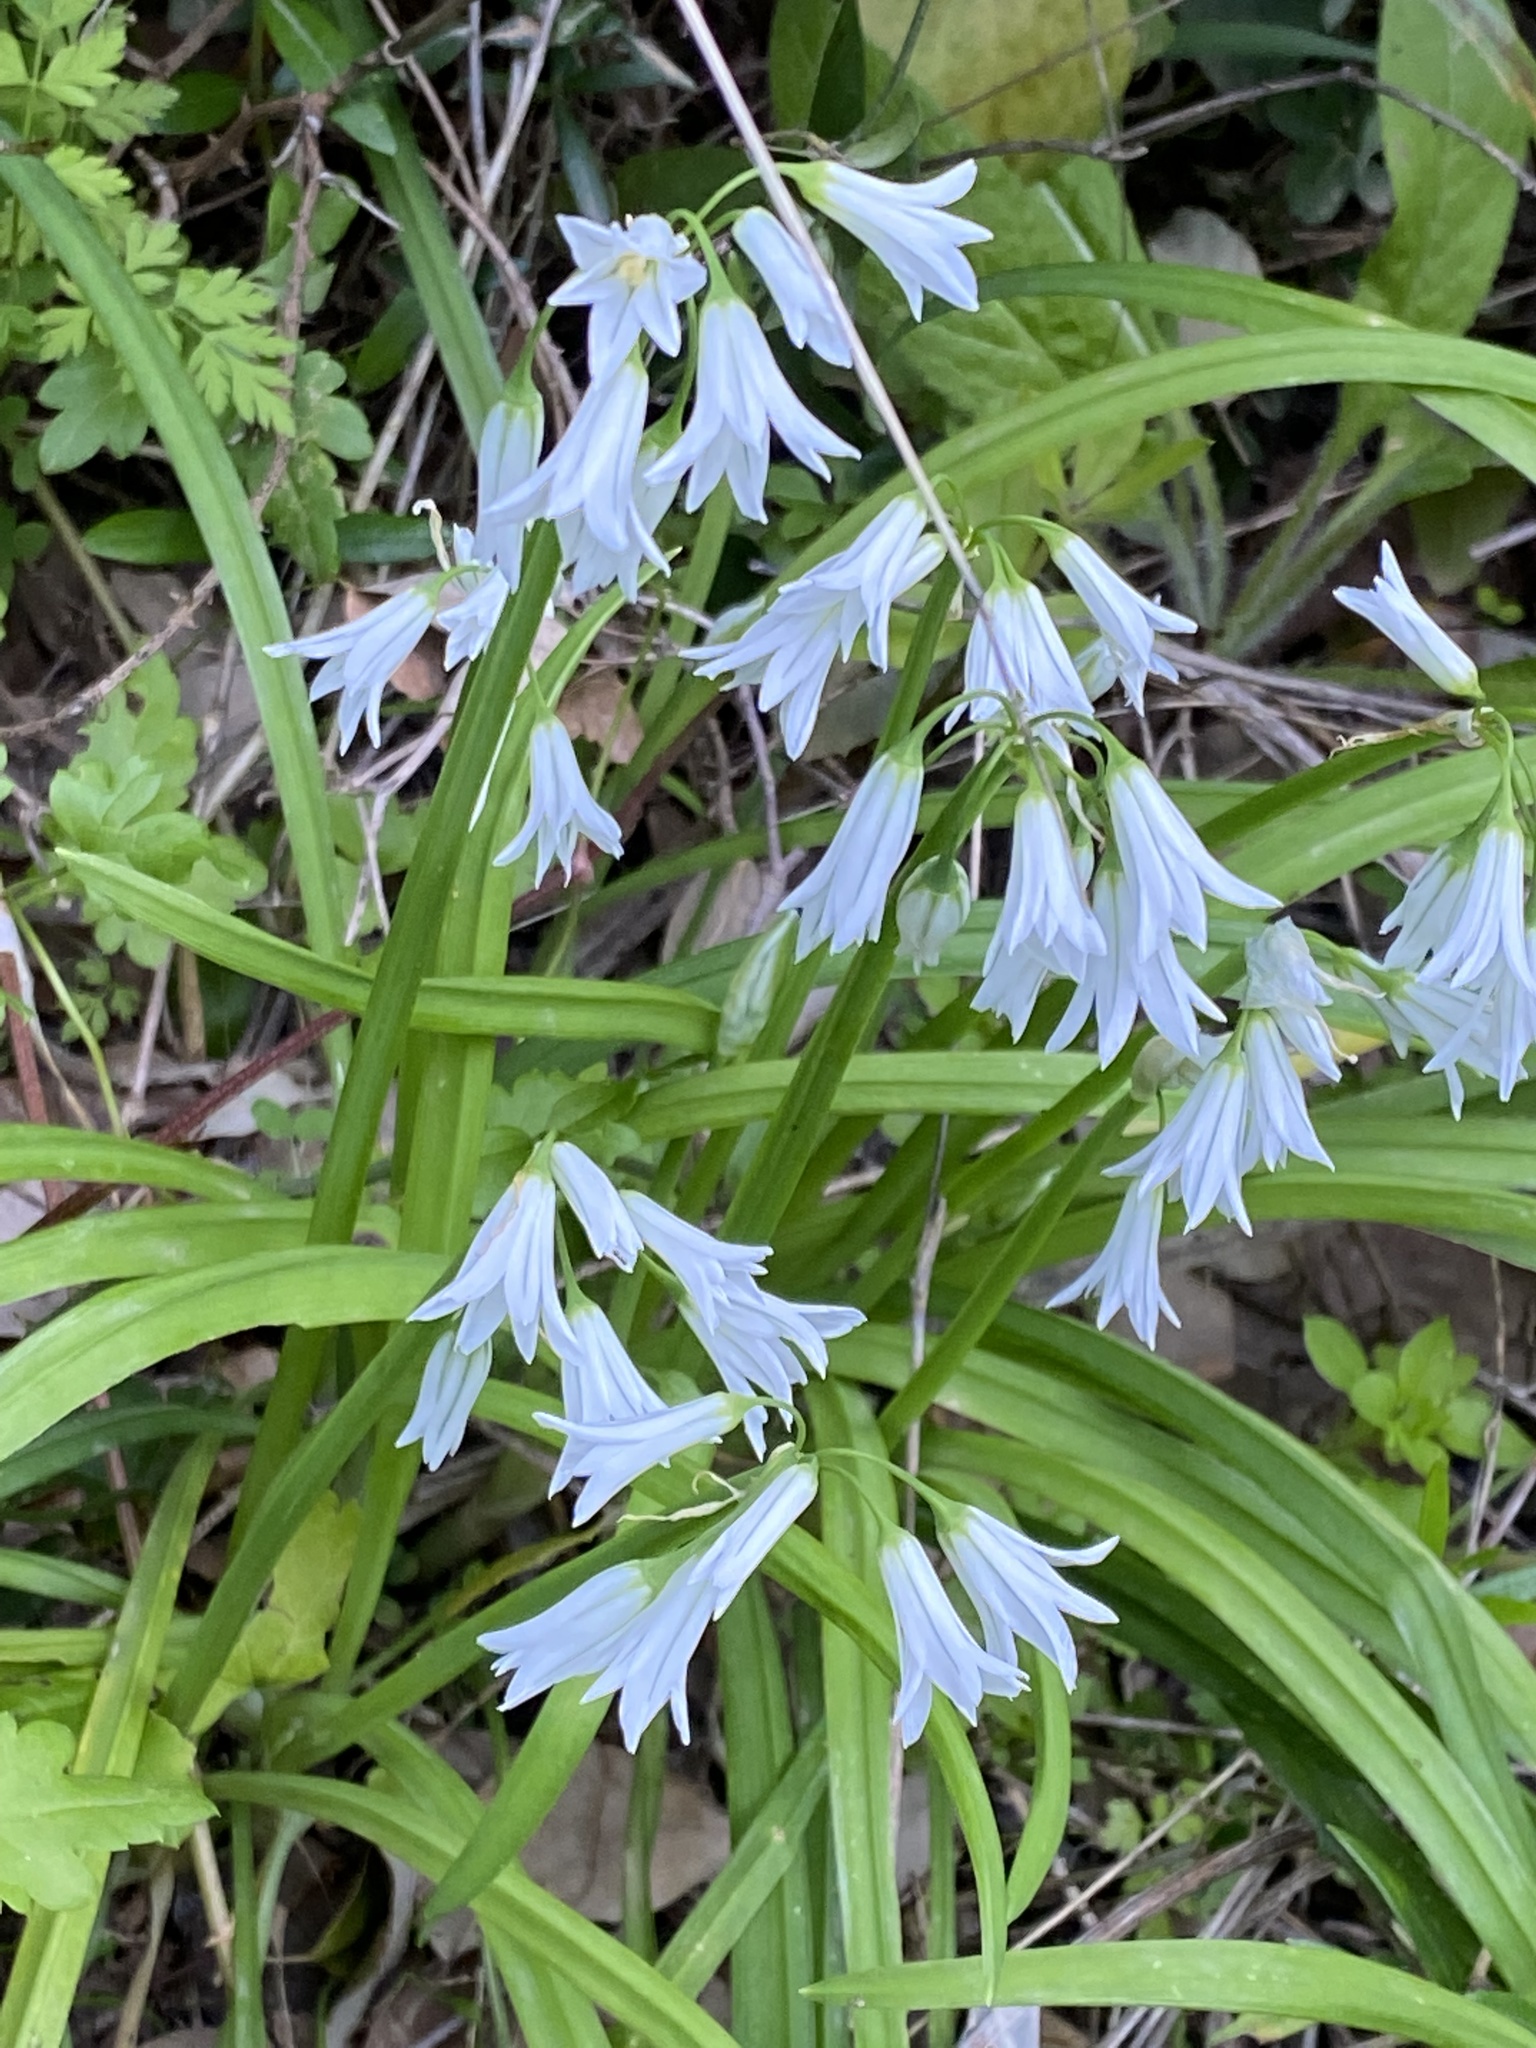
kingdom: Plantae
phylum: Tracheophyta
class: Liliopsida
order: Asparagales
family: Amaryllidaceae
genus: Allium
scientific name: Allium triquetrum
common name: Three-cornered garlic
